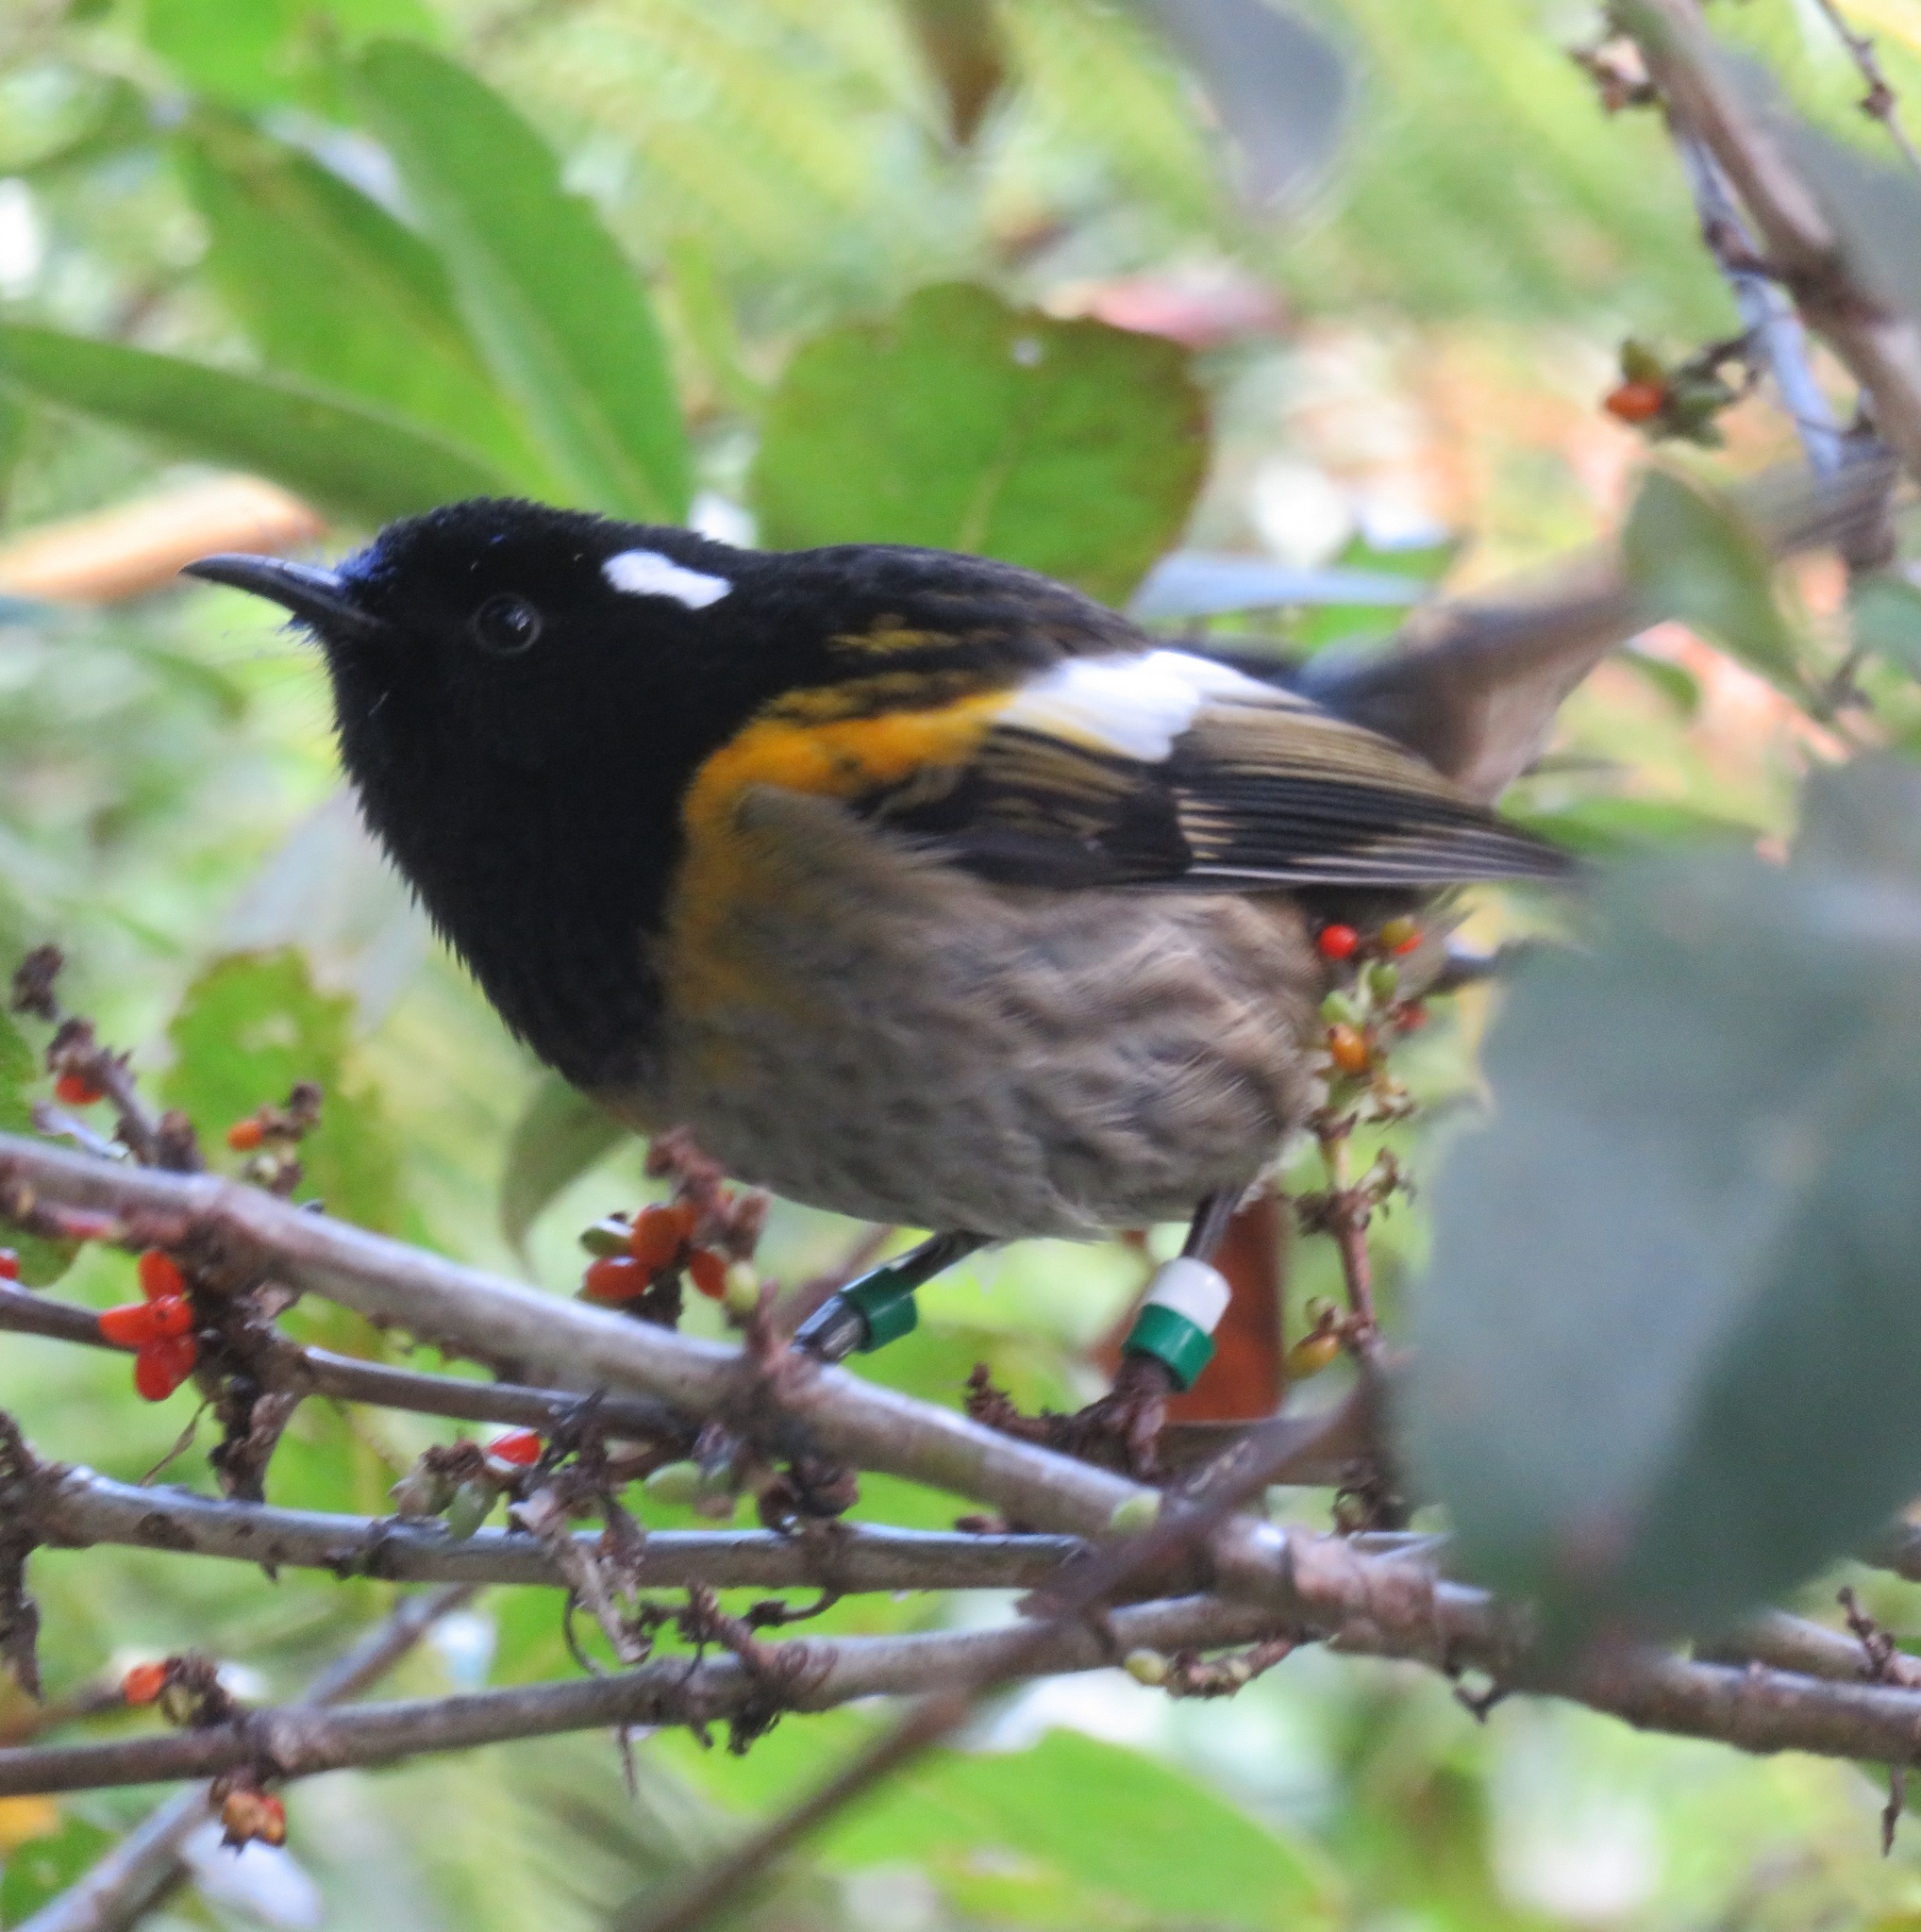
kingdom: Animalia
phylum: Chordata
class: Aves
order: Passeriformes
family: Notiomystidae
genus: Notiomystis
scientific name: Notiomystis cincta
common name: Stitchbird
